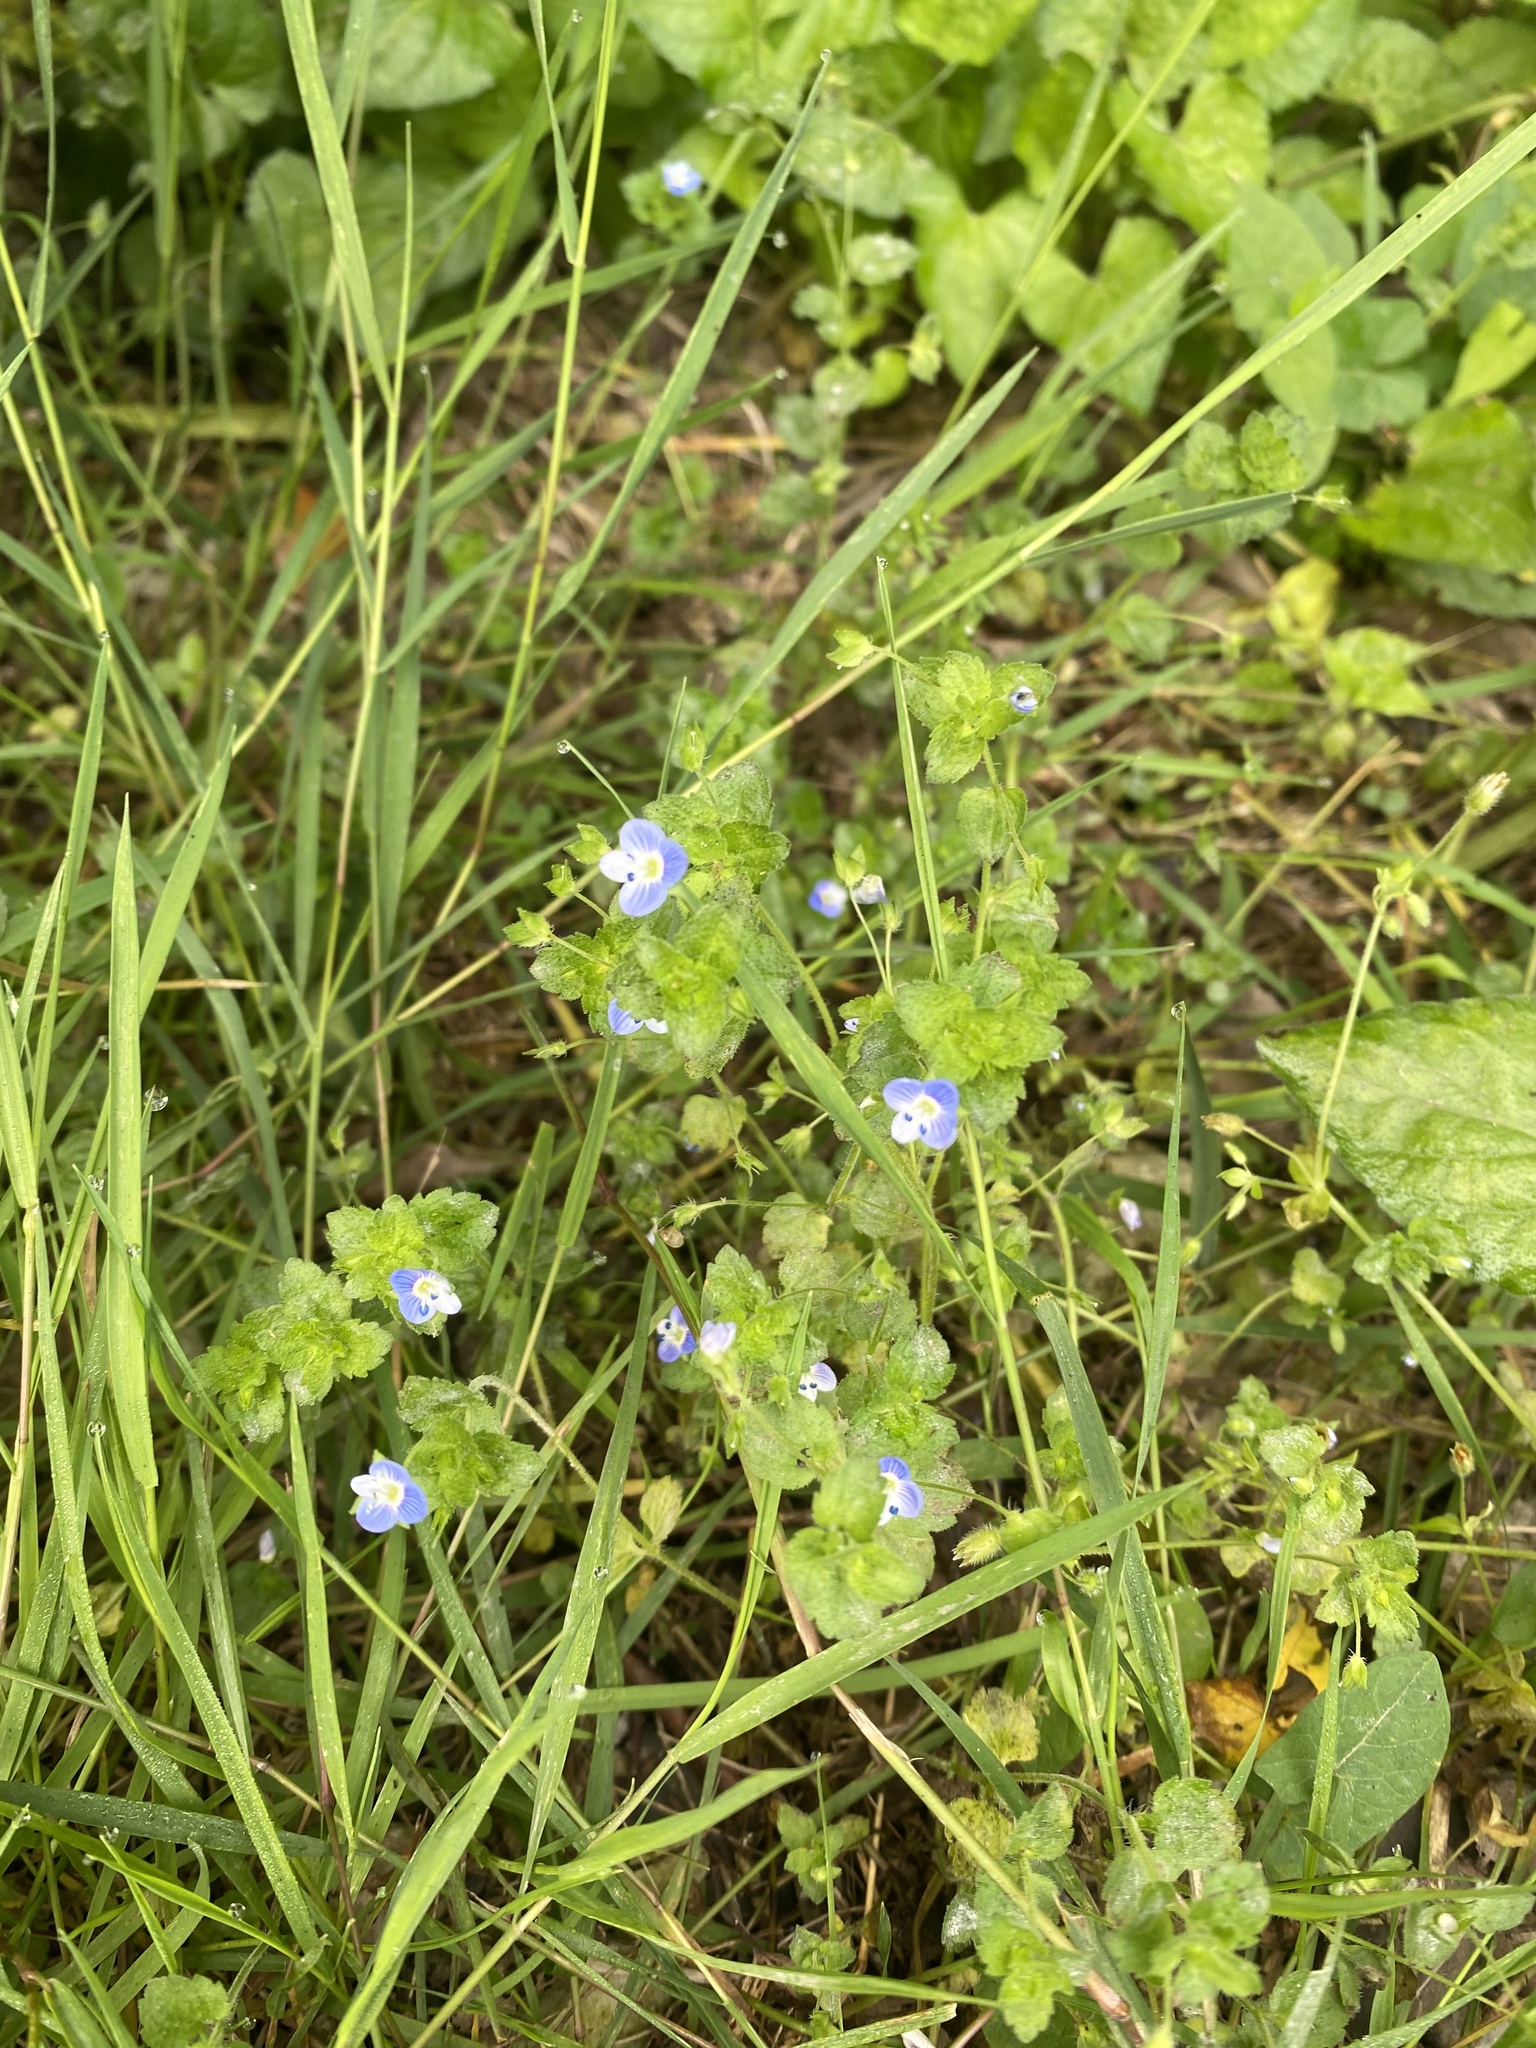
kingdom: Plantae
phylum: Tracheophyta
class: Magnoliopsida
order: Lamiales
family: Plantaginaceae
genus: Veronica
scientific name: Veronica persica
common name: Common field-speedwell
